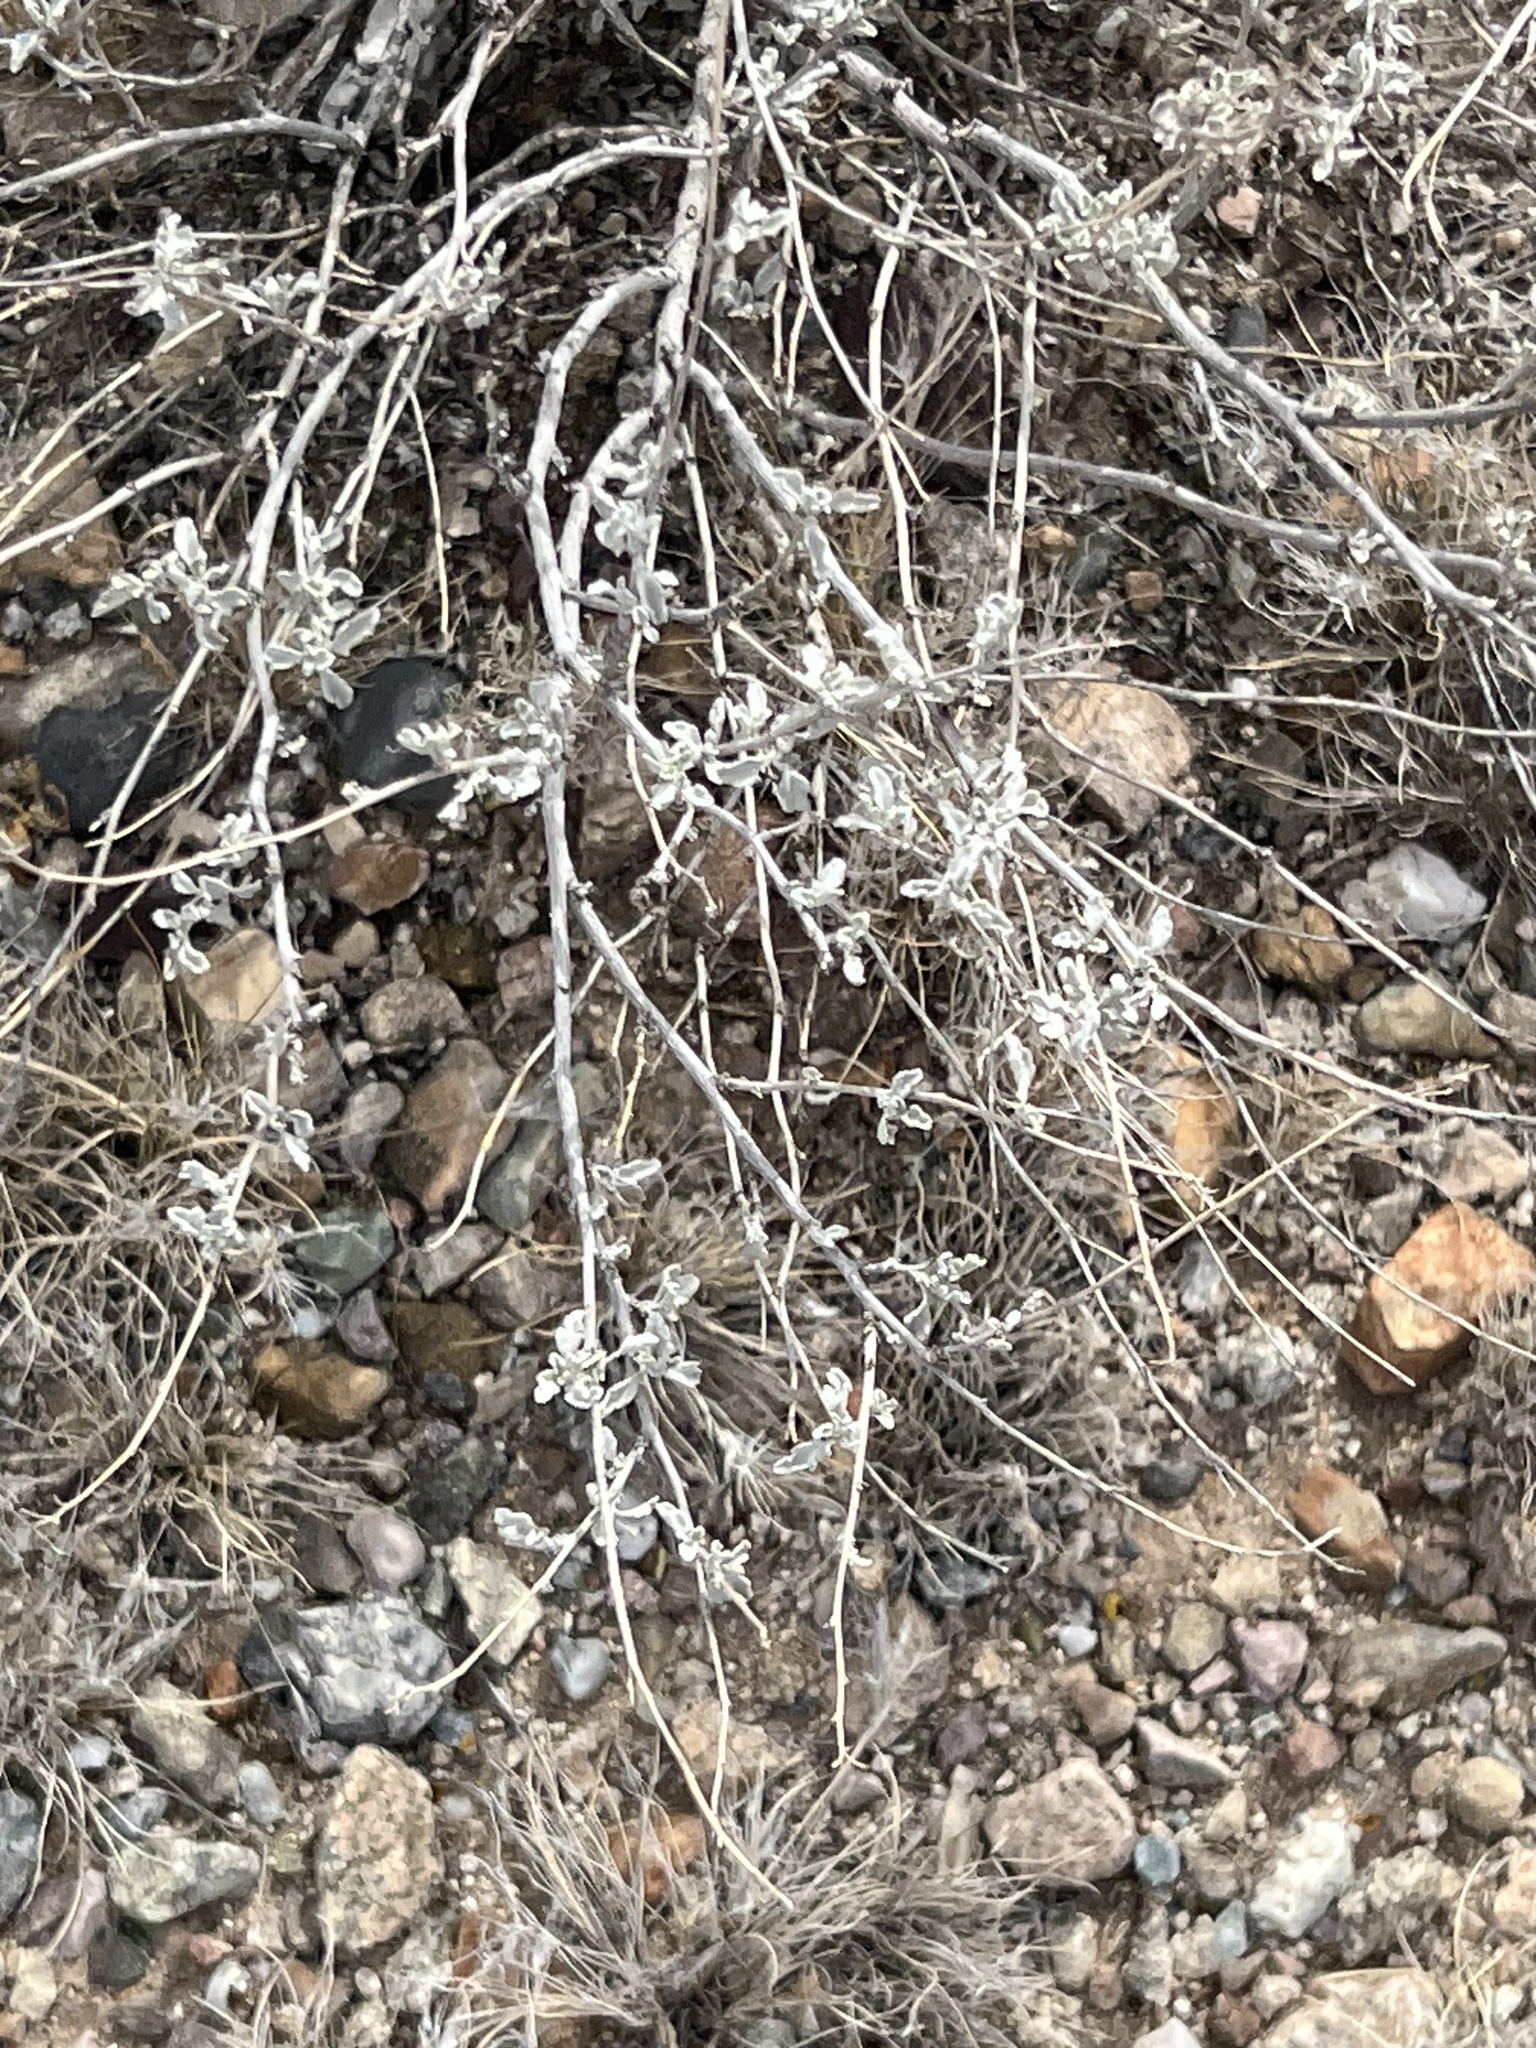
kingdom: Plantae
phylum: Tracheophyta
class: Magnoliopsida
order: Asterales
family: Asteraceae
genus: Parthenium
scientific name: Parthenium incanum
